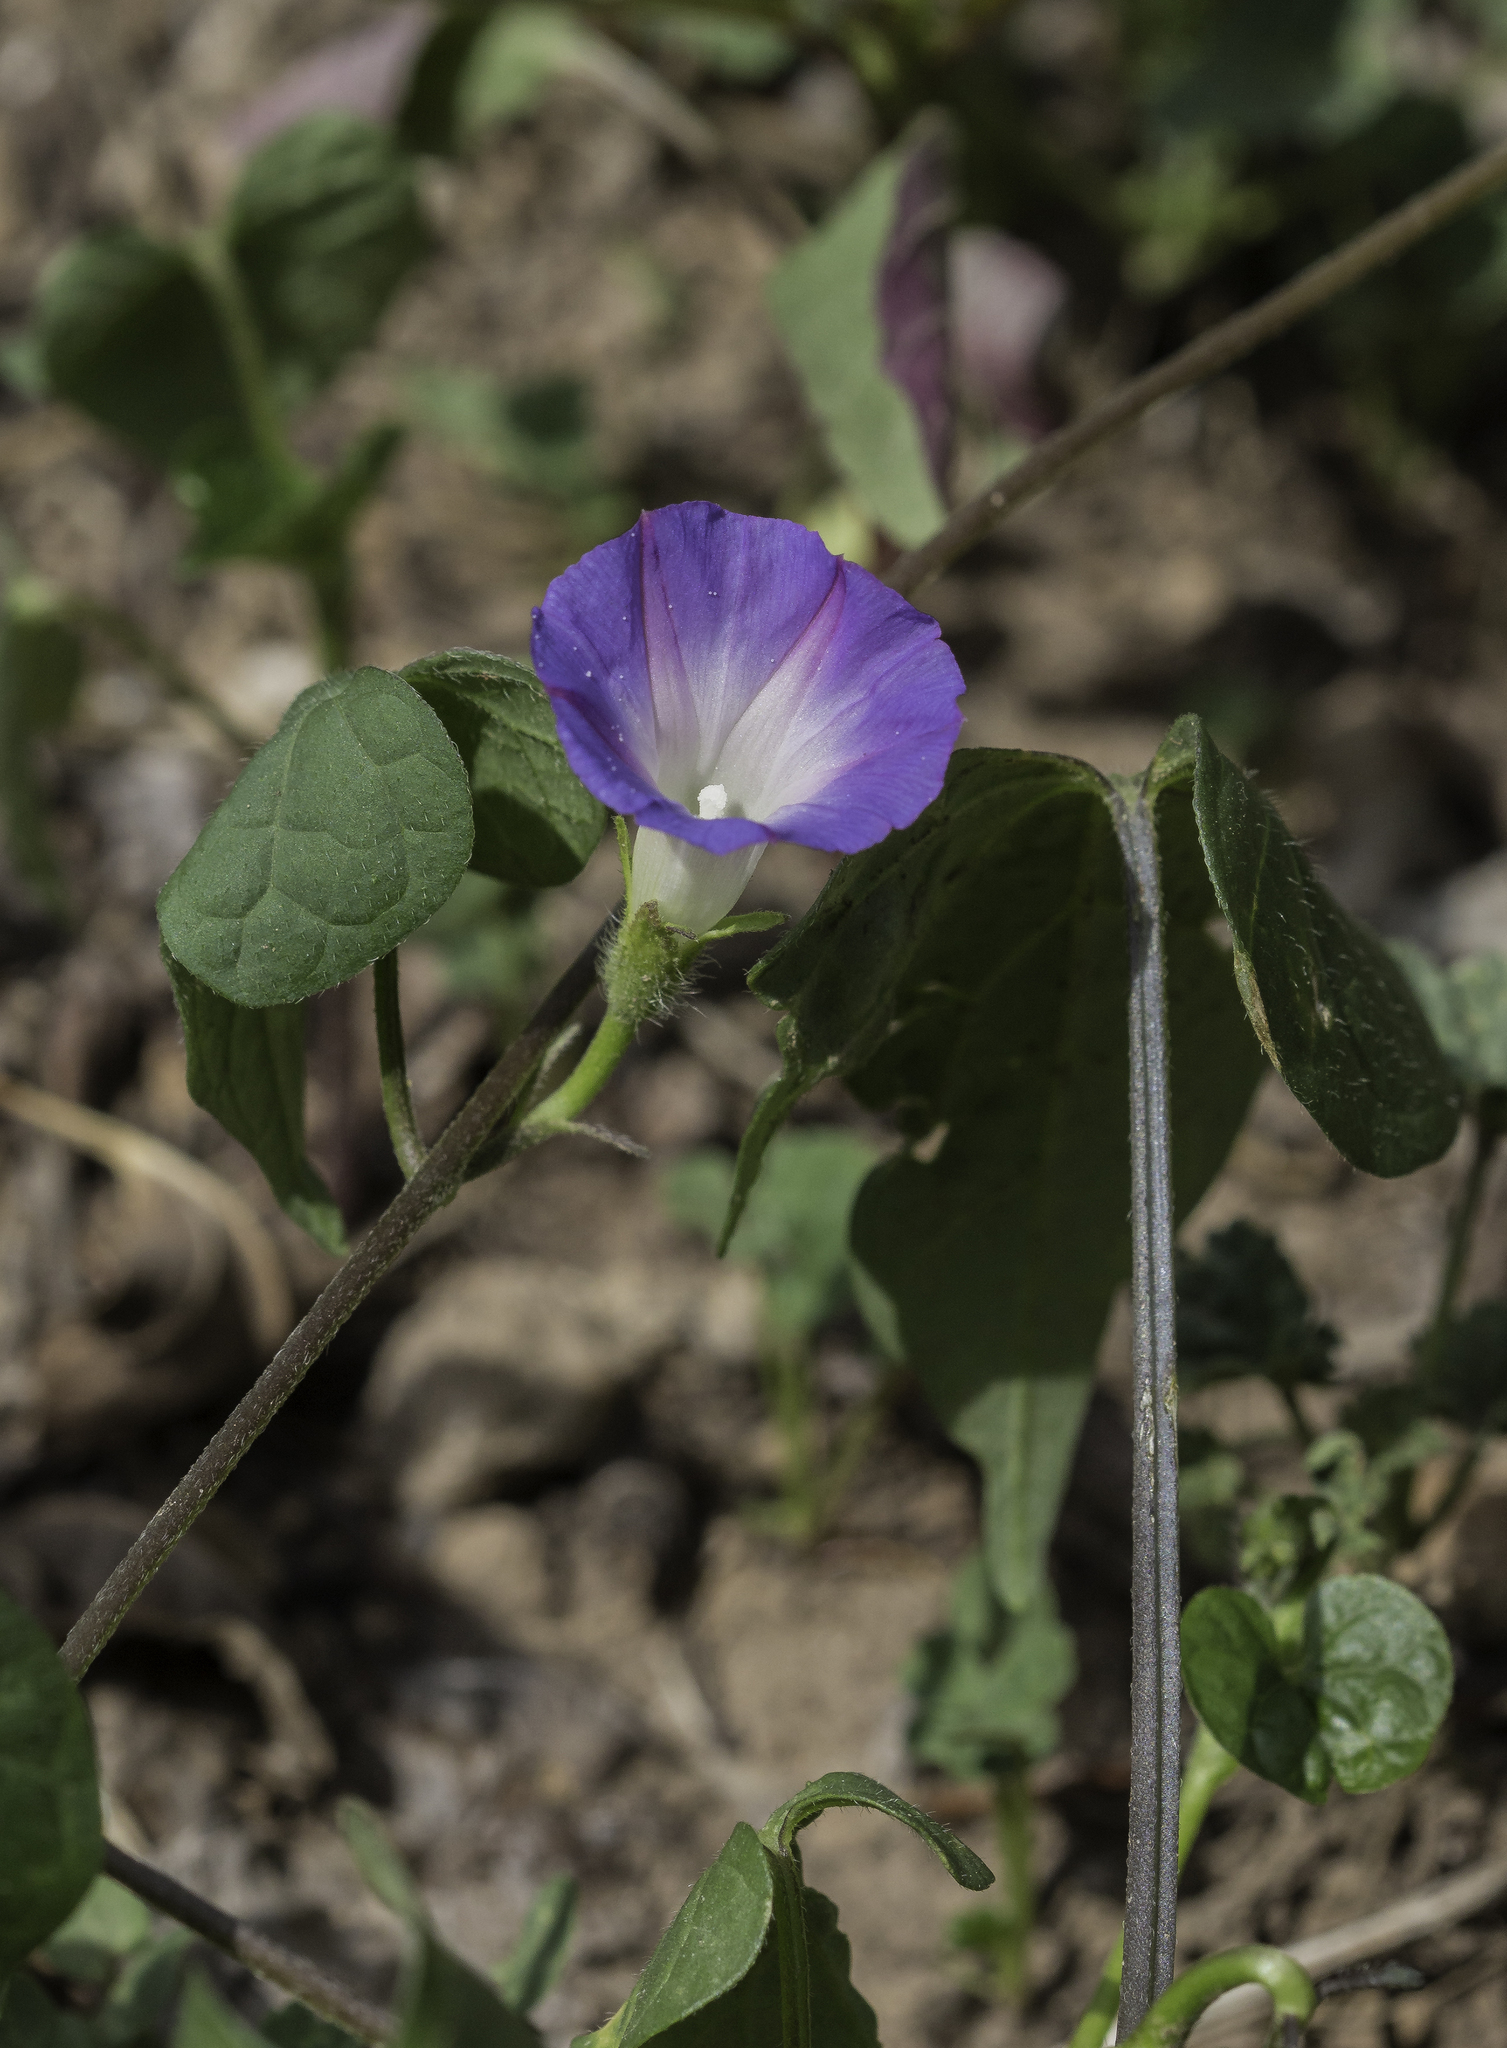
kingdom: Plantae
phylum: Tracheophyta
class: Magnoliopsida
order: Solanales
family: Convolvulaceae
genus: Ipomoea
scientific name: Ipomoea purpurea
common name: Common morning-glory
